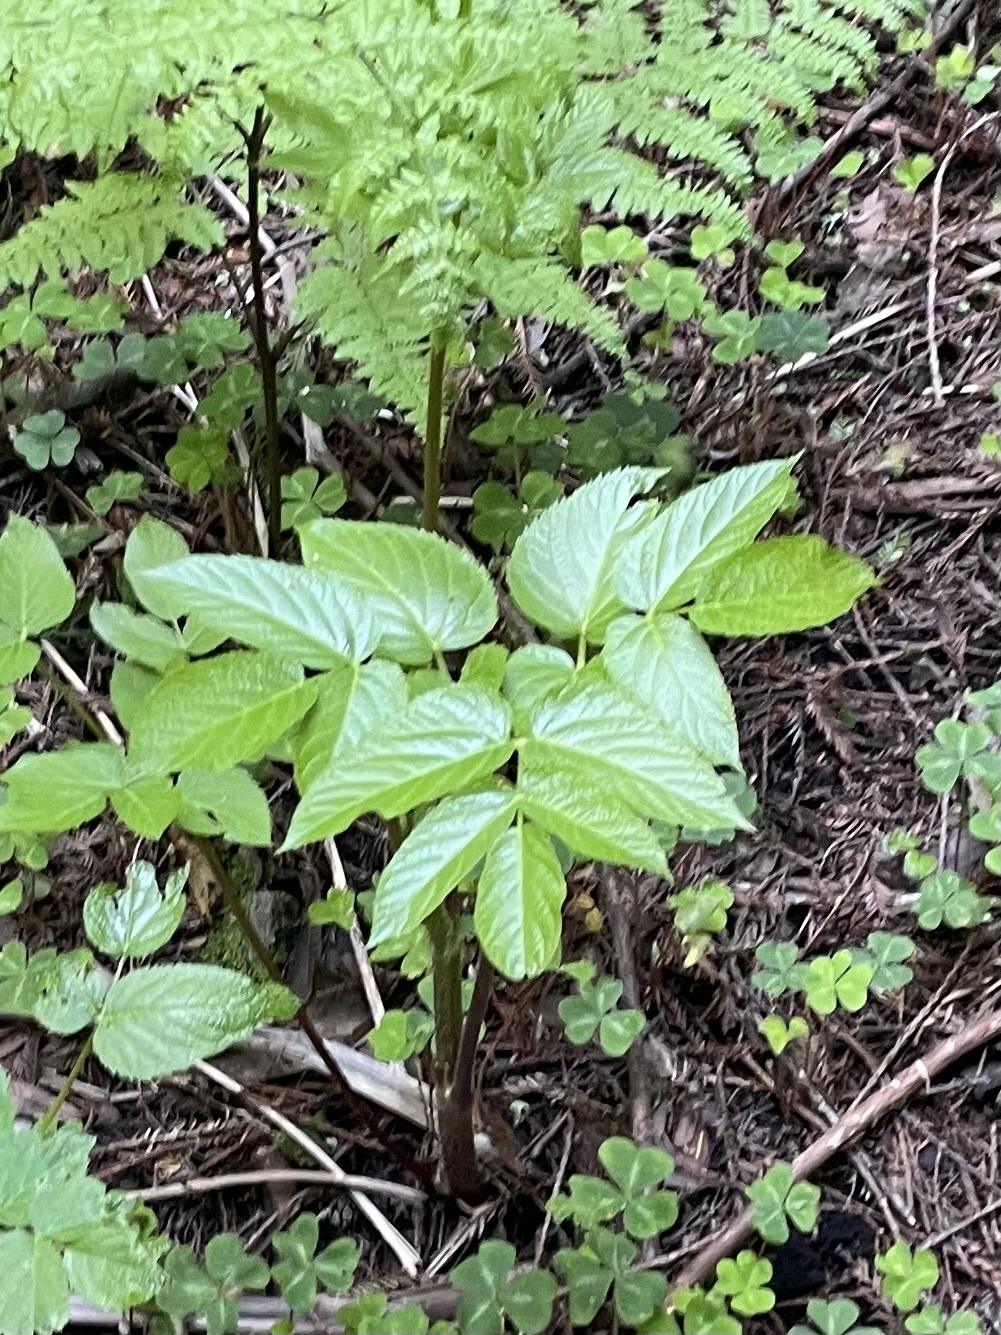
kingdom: Plantae
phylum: Tracheophyta
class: Magnoliopsida
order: Apiales
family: Araliaceae
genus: Aralia
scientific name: Aralia californica
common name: California-ginseng
